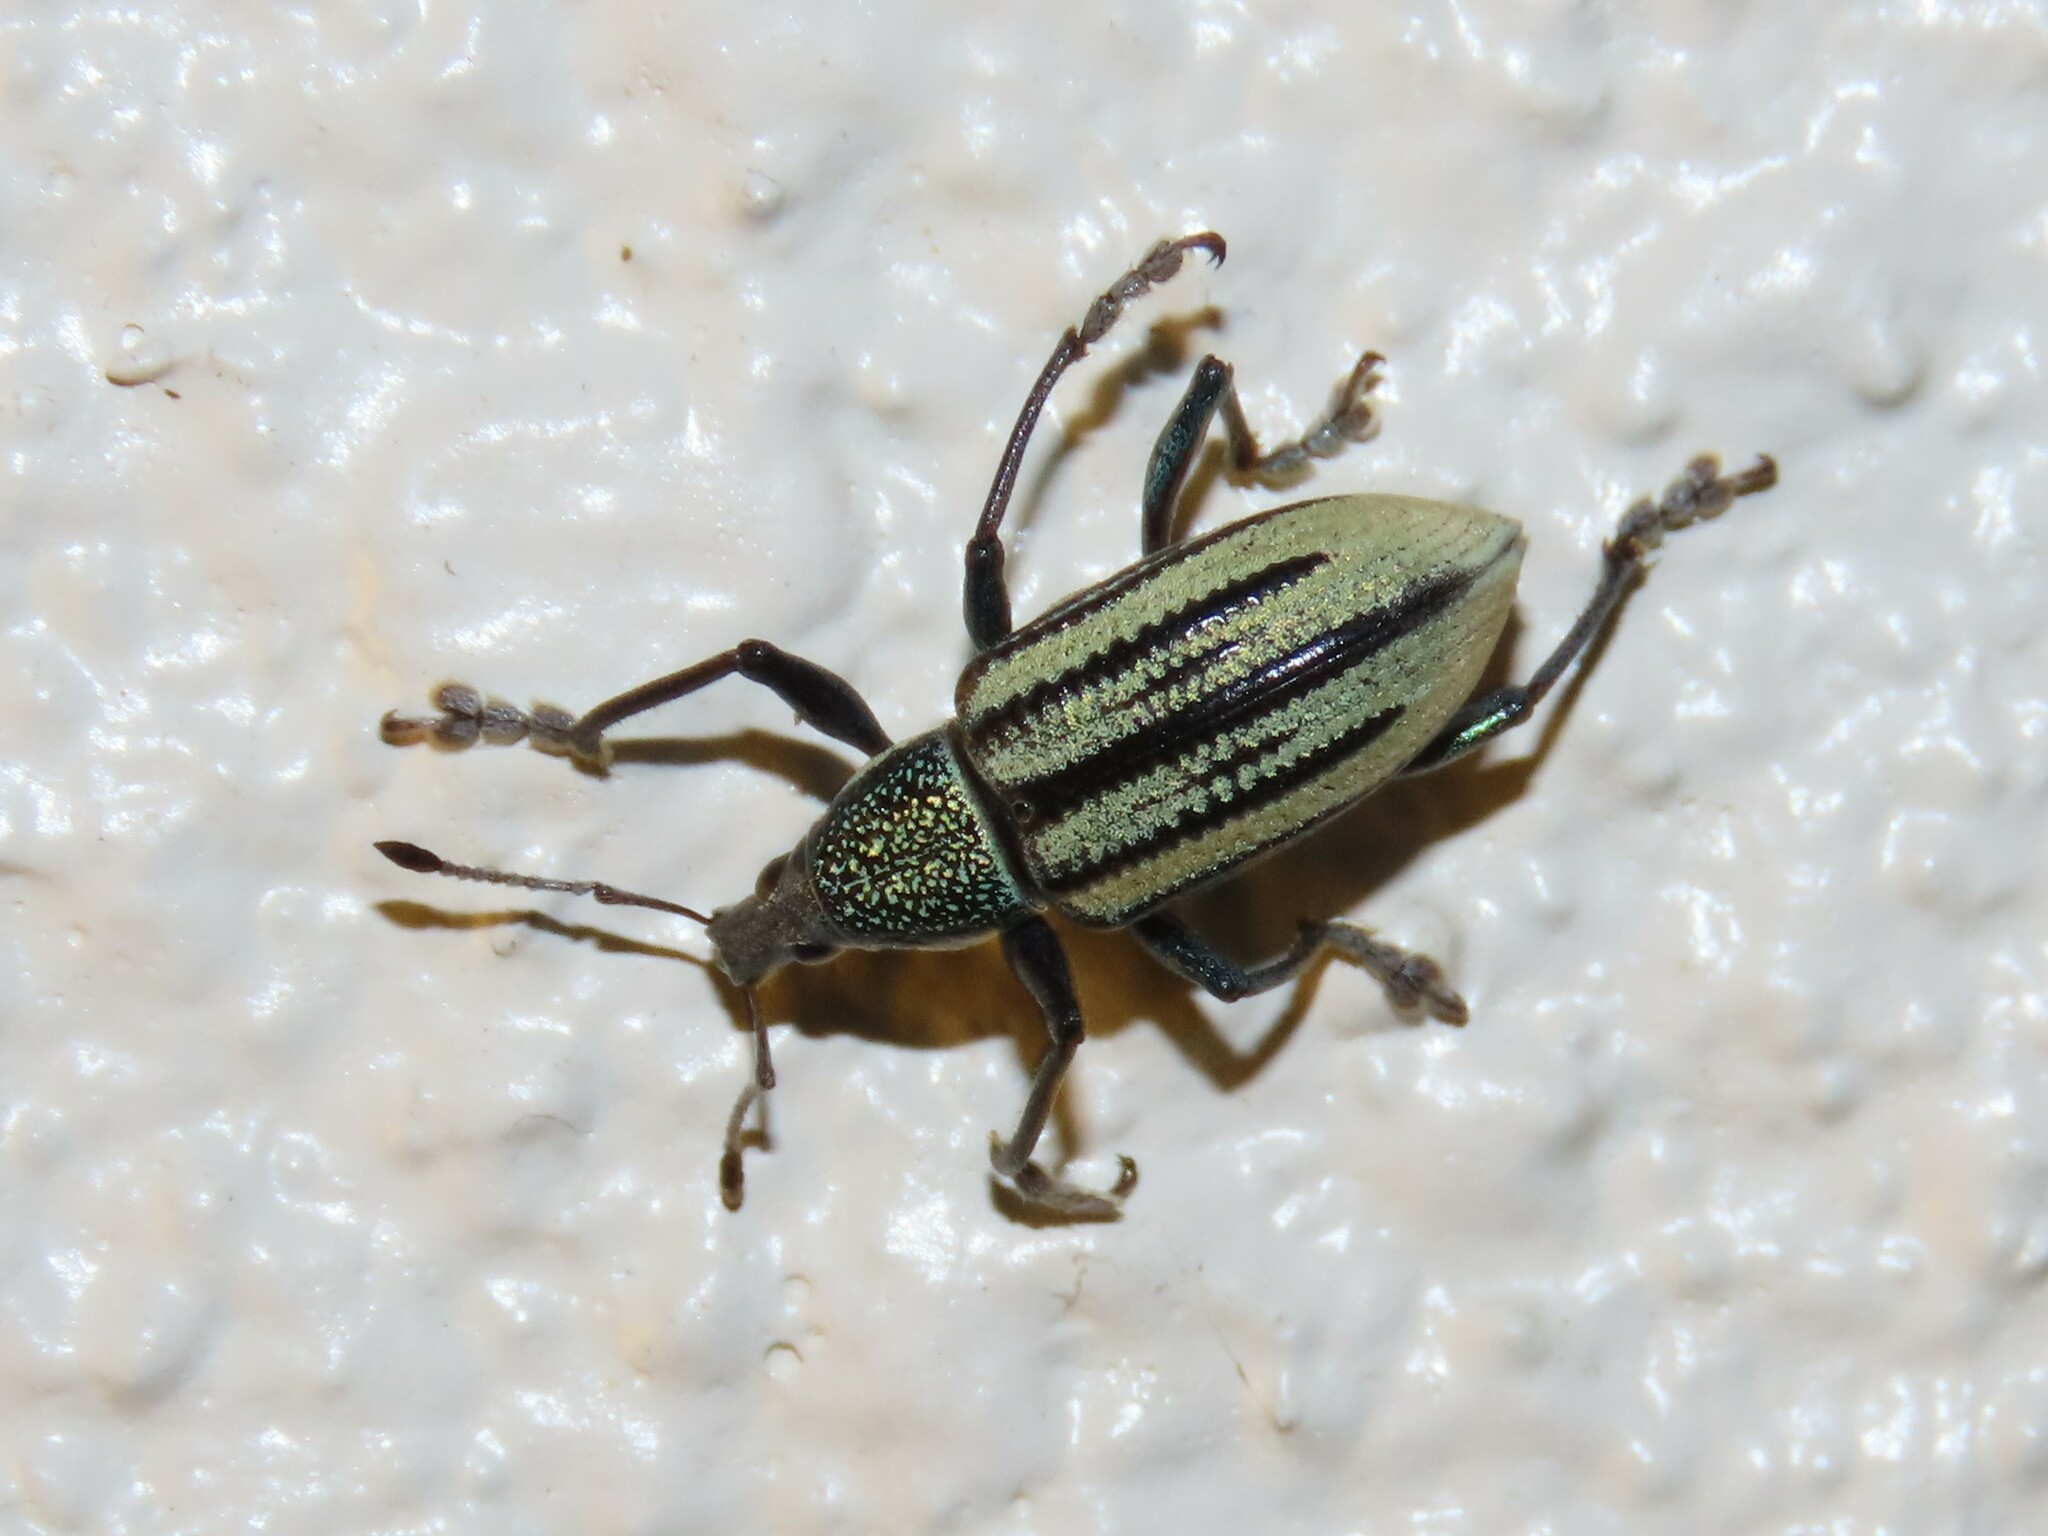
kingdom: Animalia
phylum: Arthropoda
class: Insecta
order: Coleoptera
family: Curculionidae
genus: Diaprepes
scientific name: Diaprepes abbreviatus
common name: Root weevil
